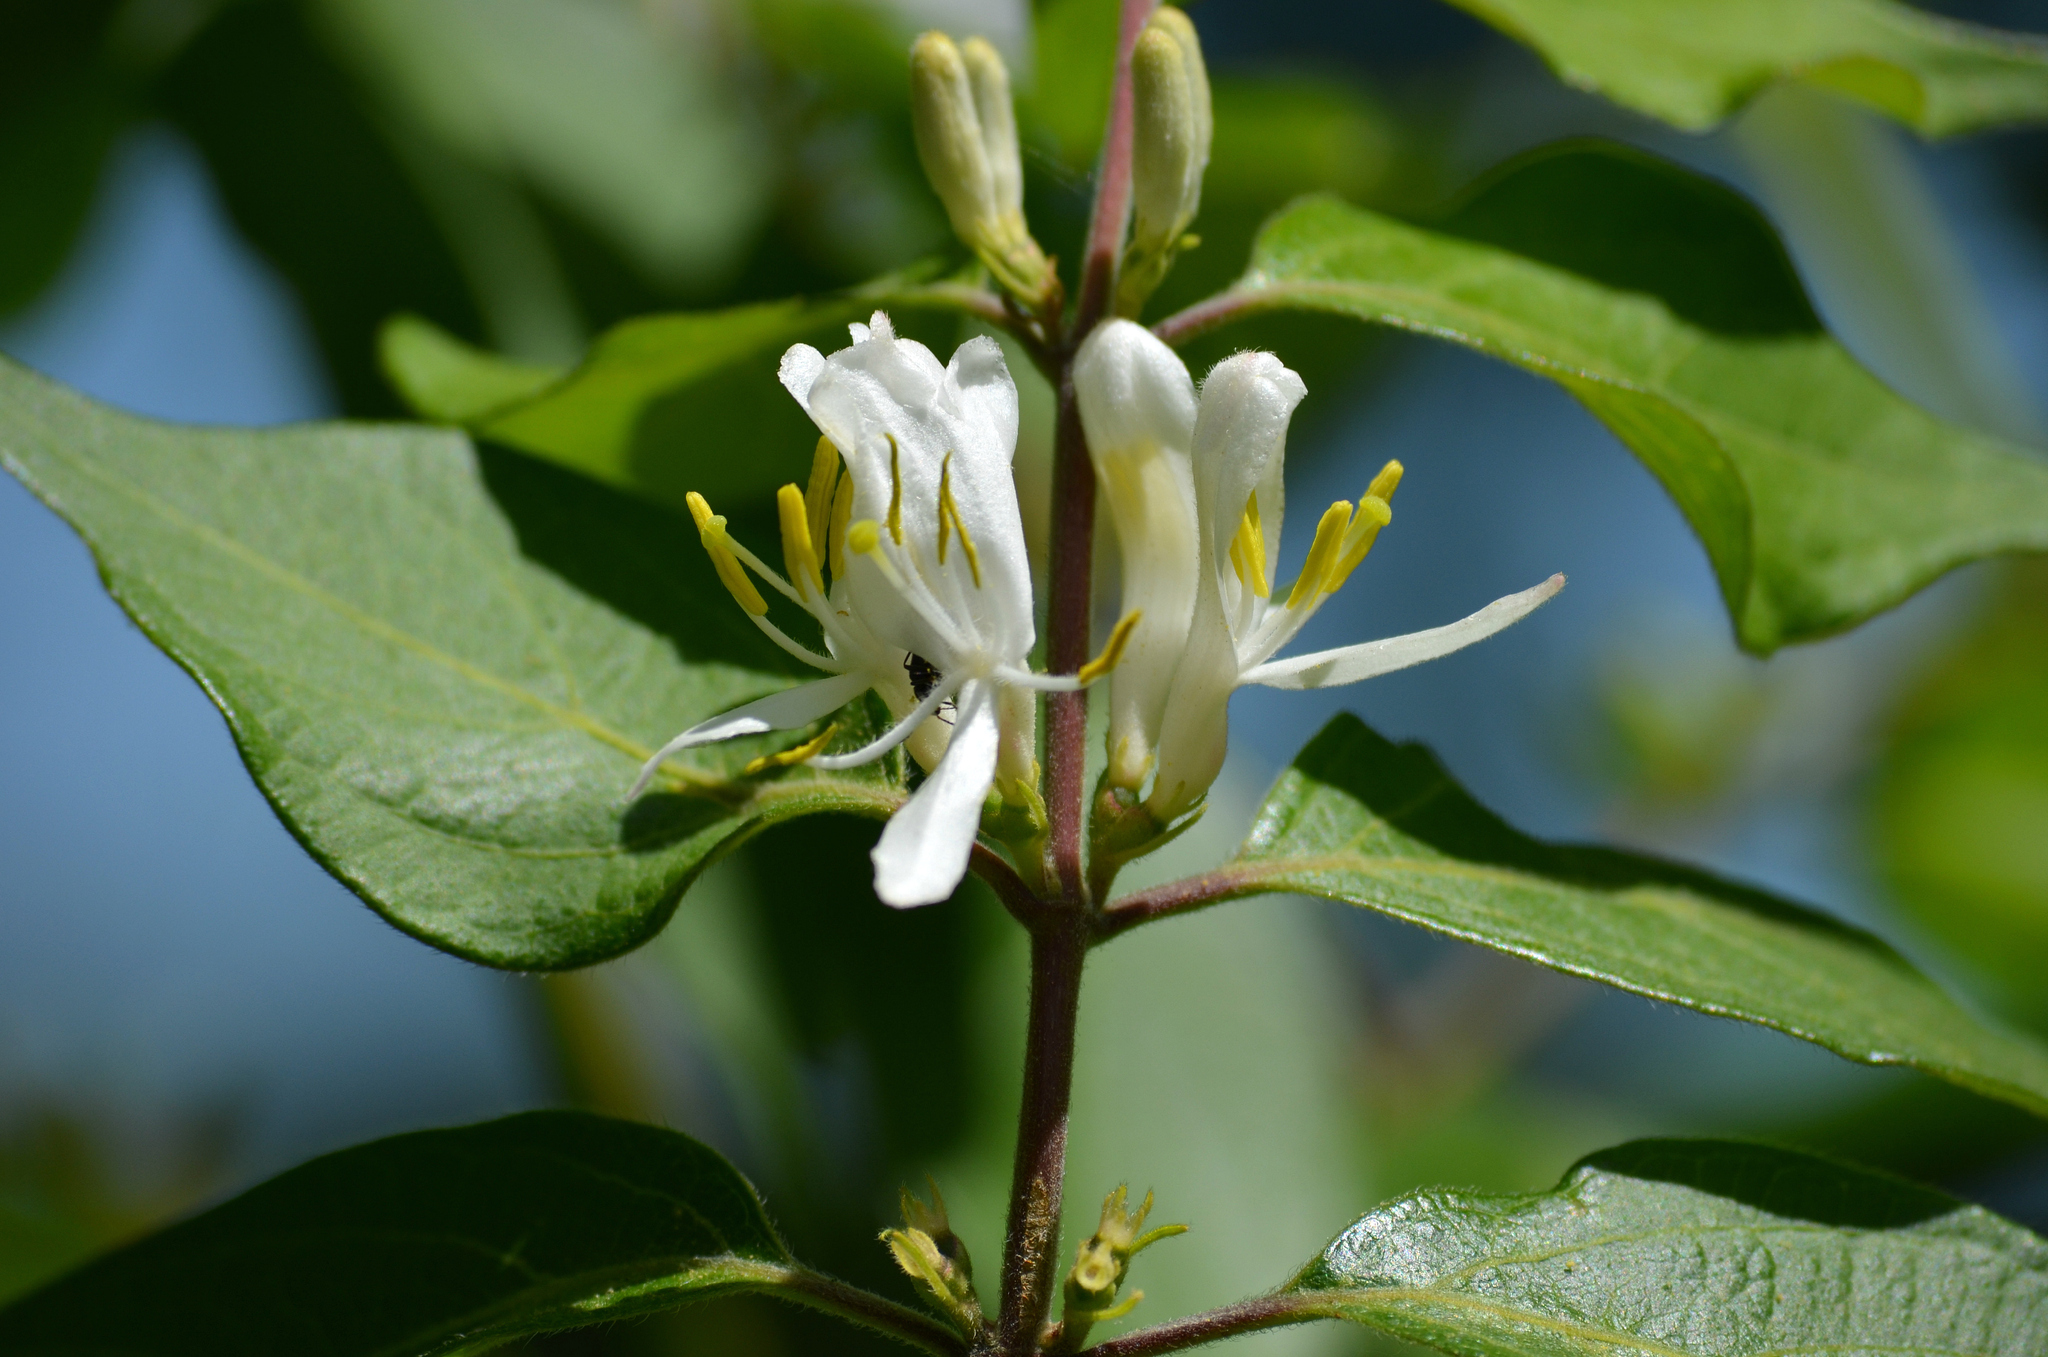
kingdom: Plantae
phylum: Tracheophyta
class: Magnoliopsida
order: Dipsacales
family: Caprifoliaceae
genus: Lonicera
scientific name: Lonicera maackii
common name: Amur honeysuckle
